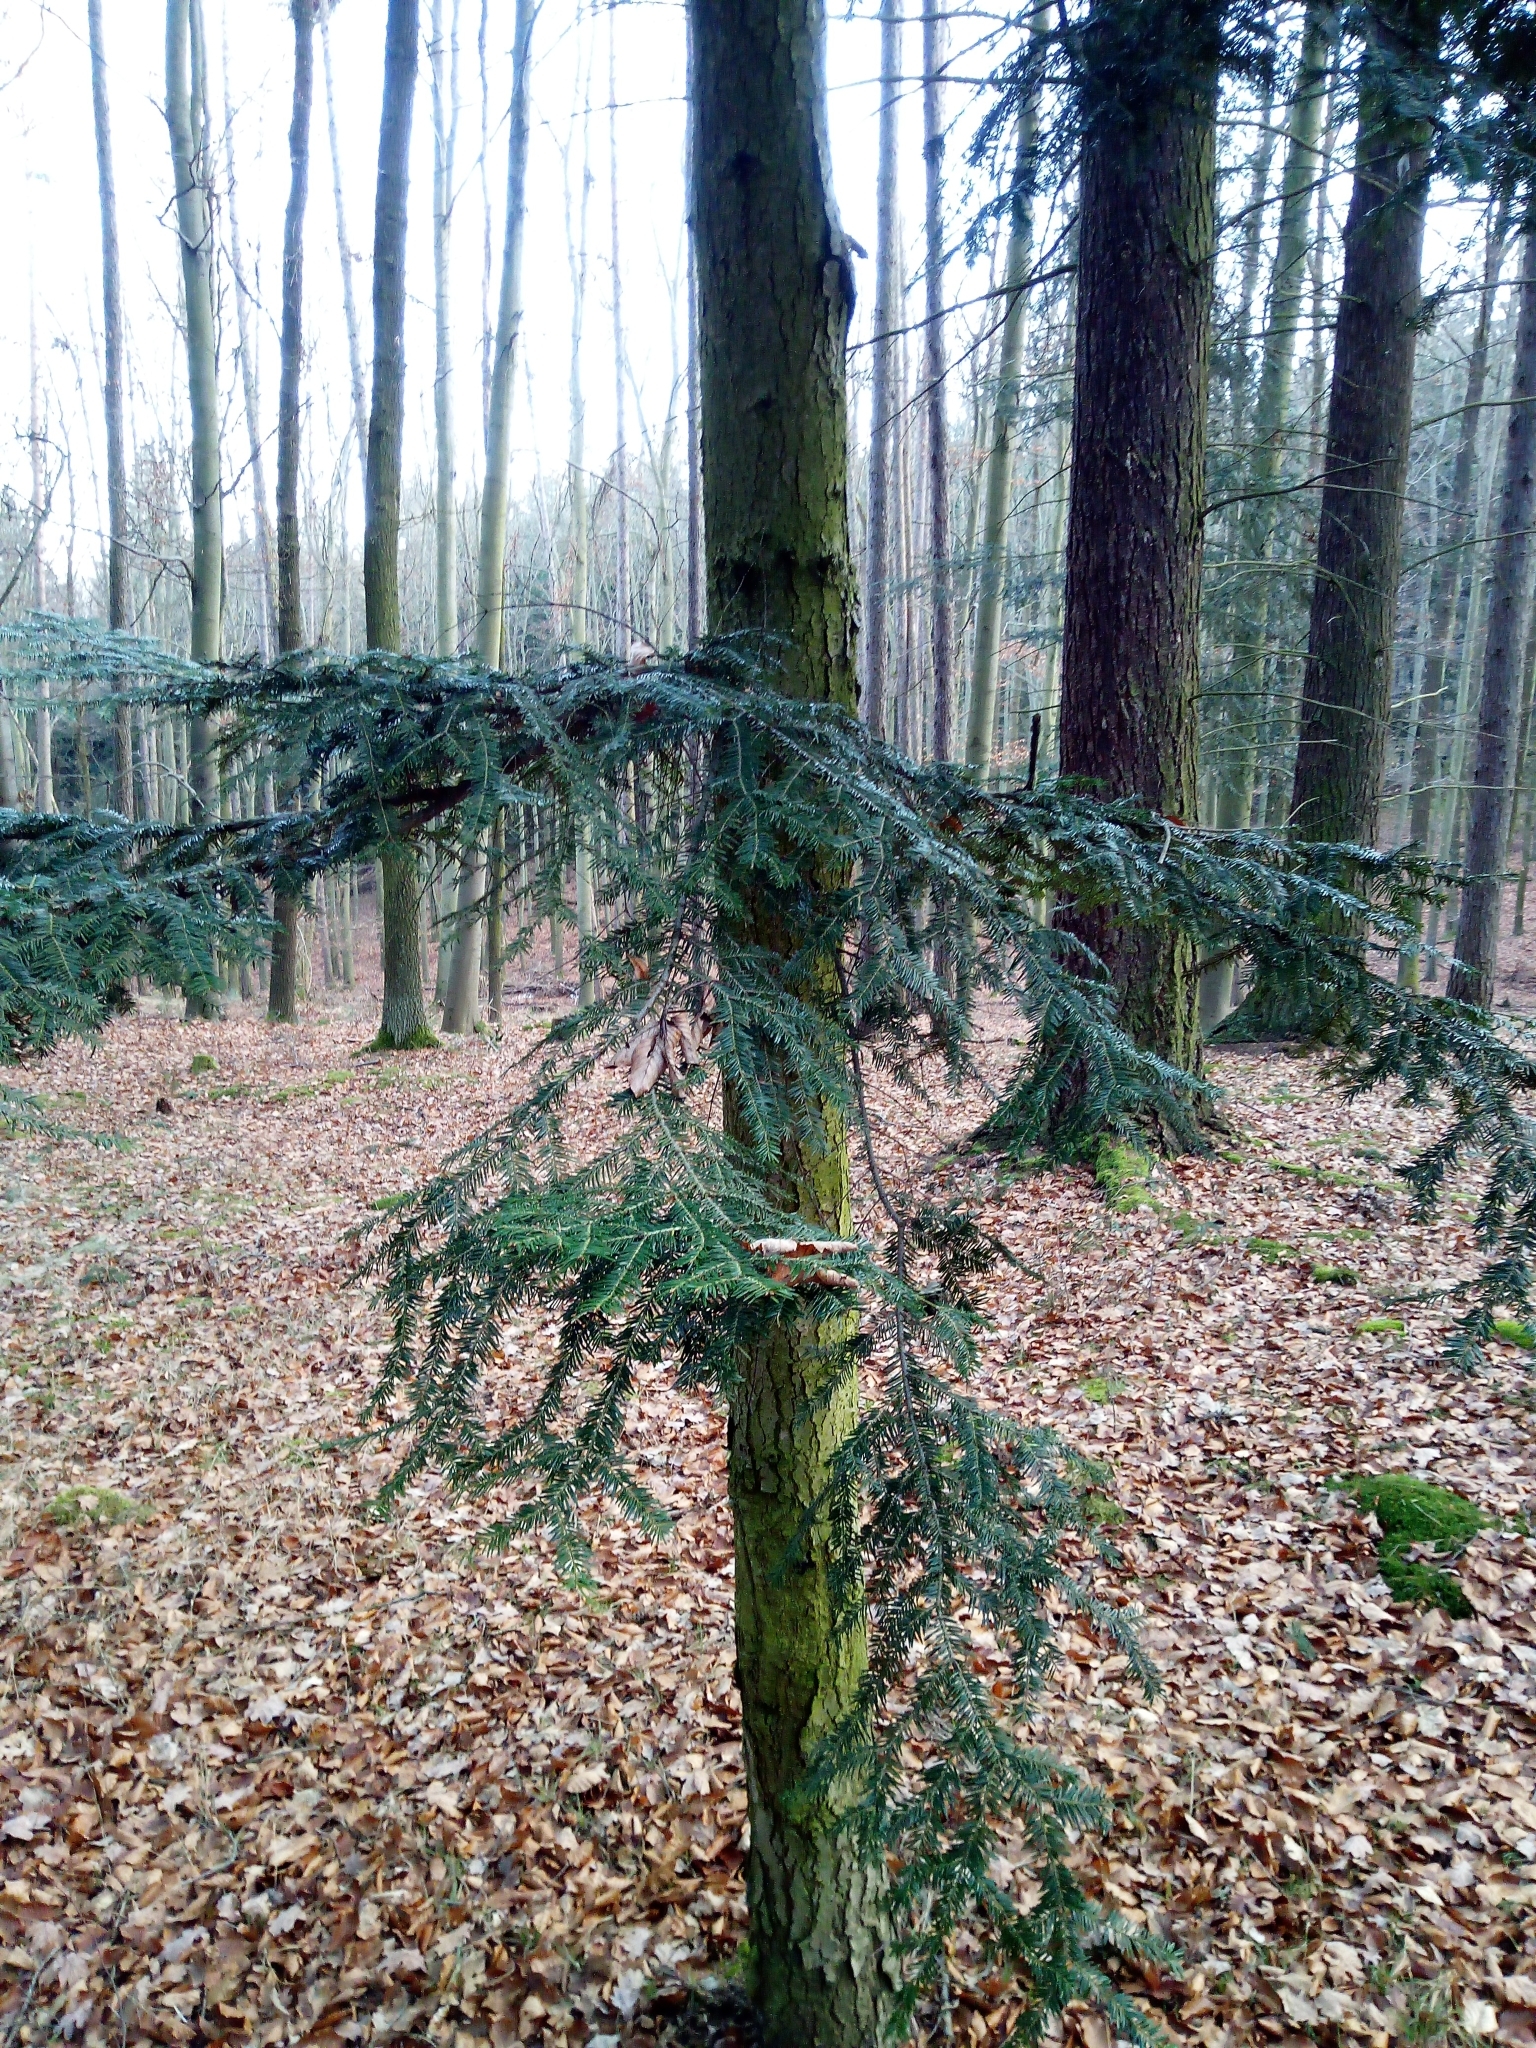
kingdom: Plantae
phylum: Tracheophyta
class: Pinopsida
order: Pinales
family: Pinaceae
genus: Abies
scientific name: Abies alba
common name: Silver fir
